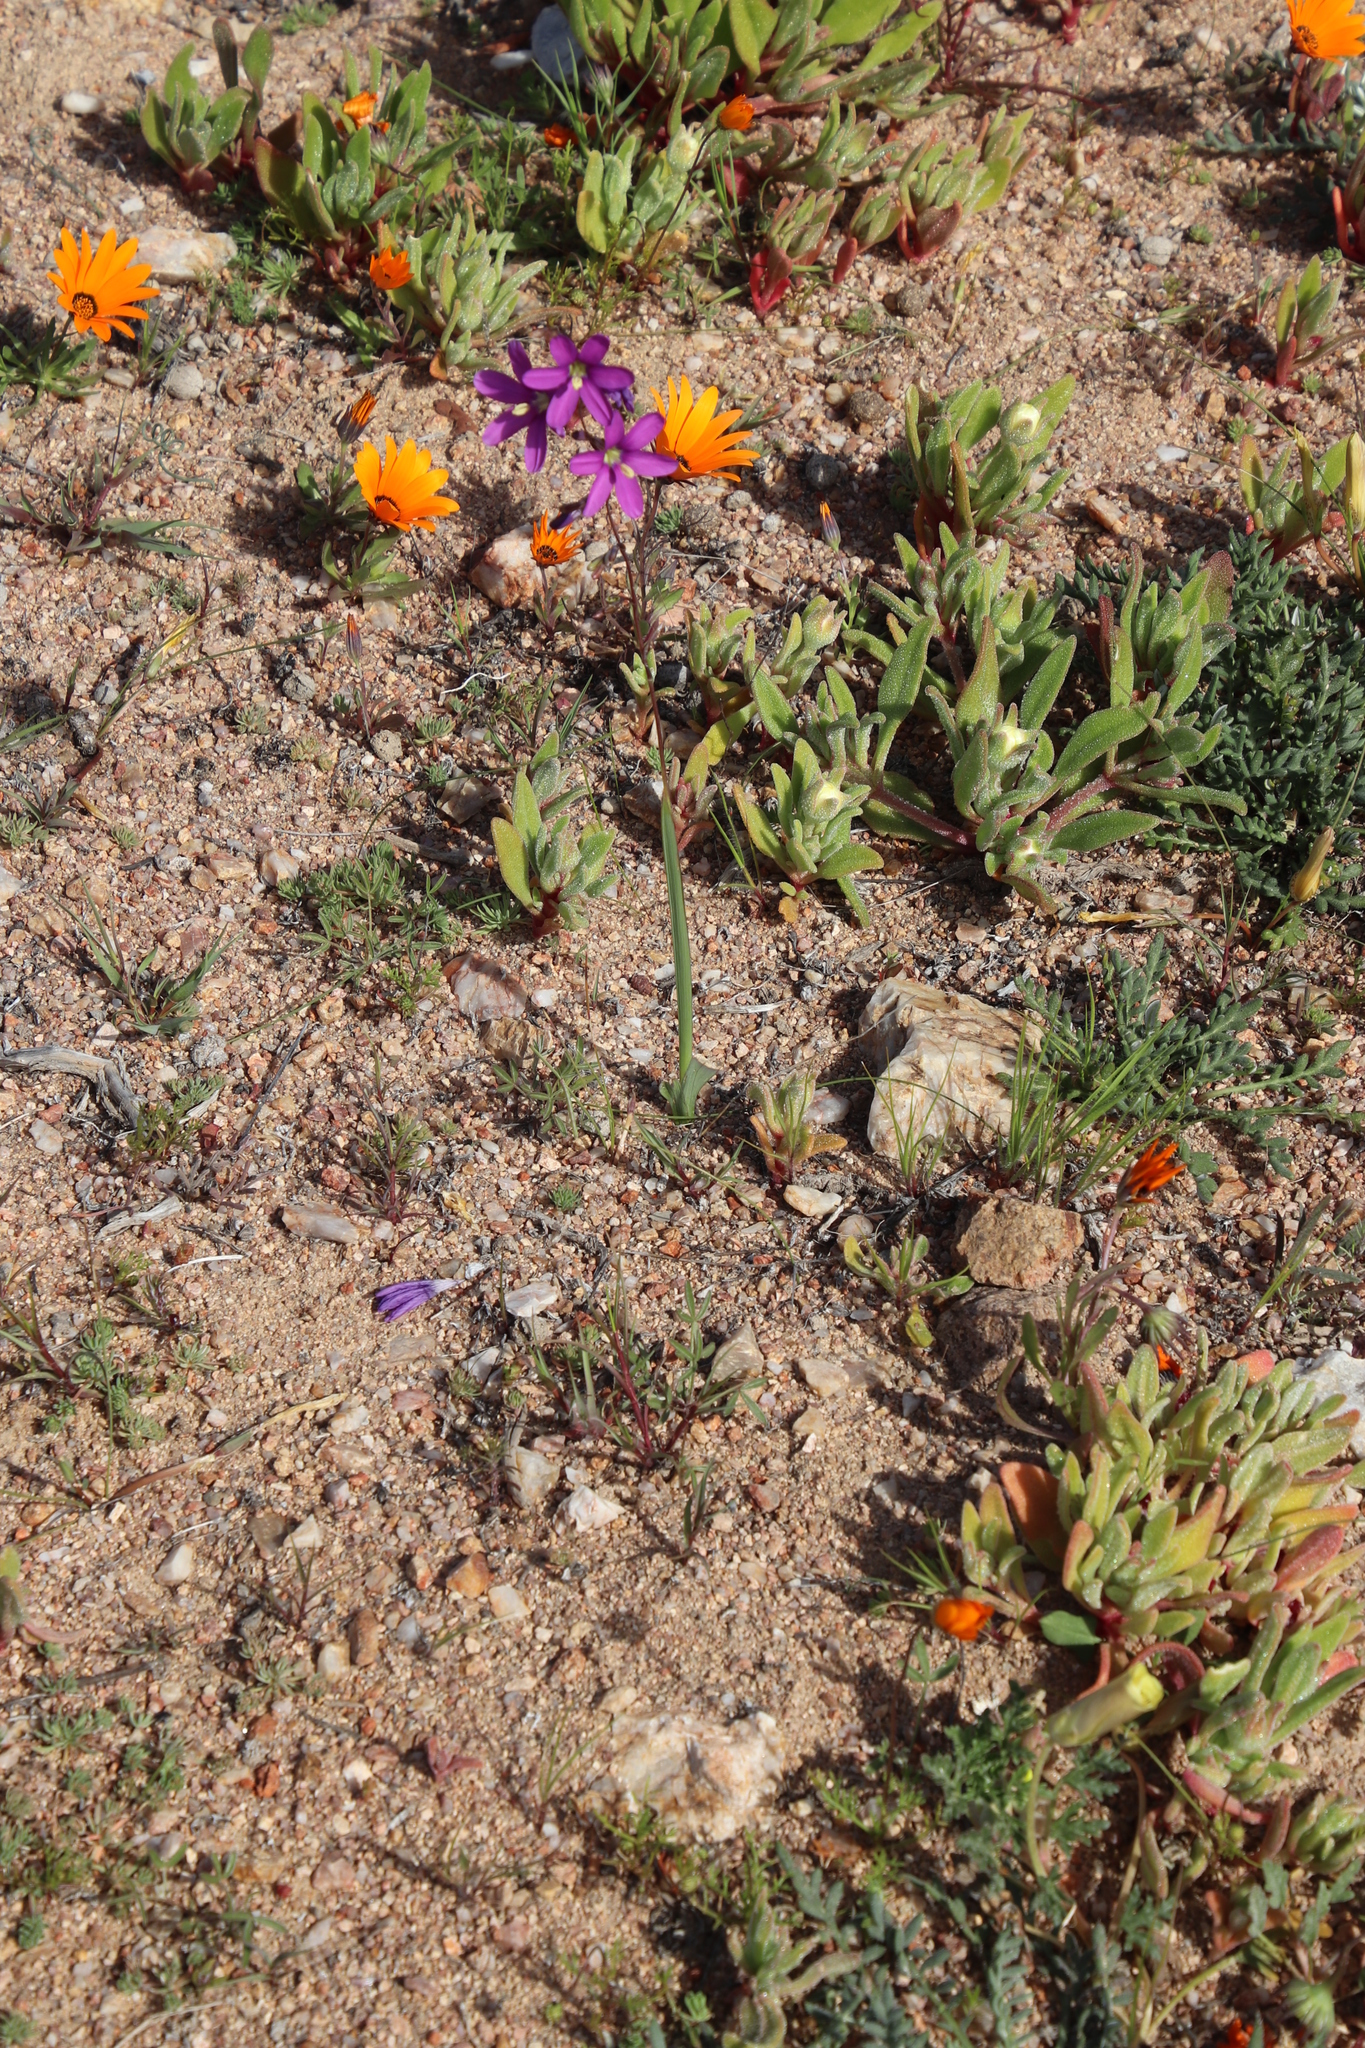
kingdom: Plantae
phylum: Tracheophyta
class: Liliopsida
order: Asparagales
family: Iridaceae
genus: Ixia
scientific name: Ixia ramulosa
